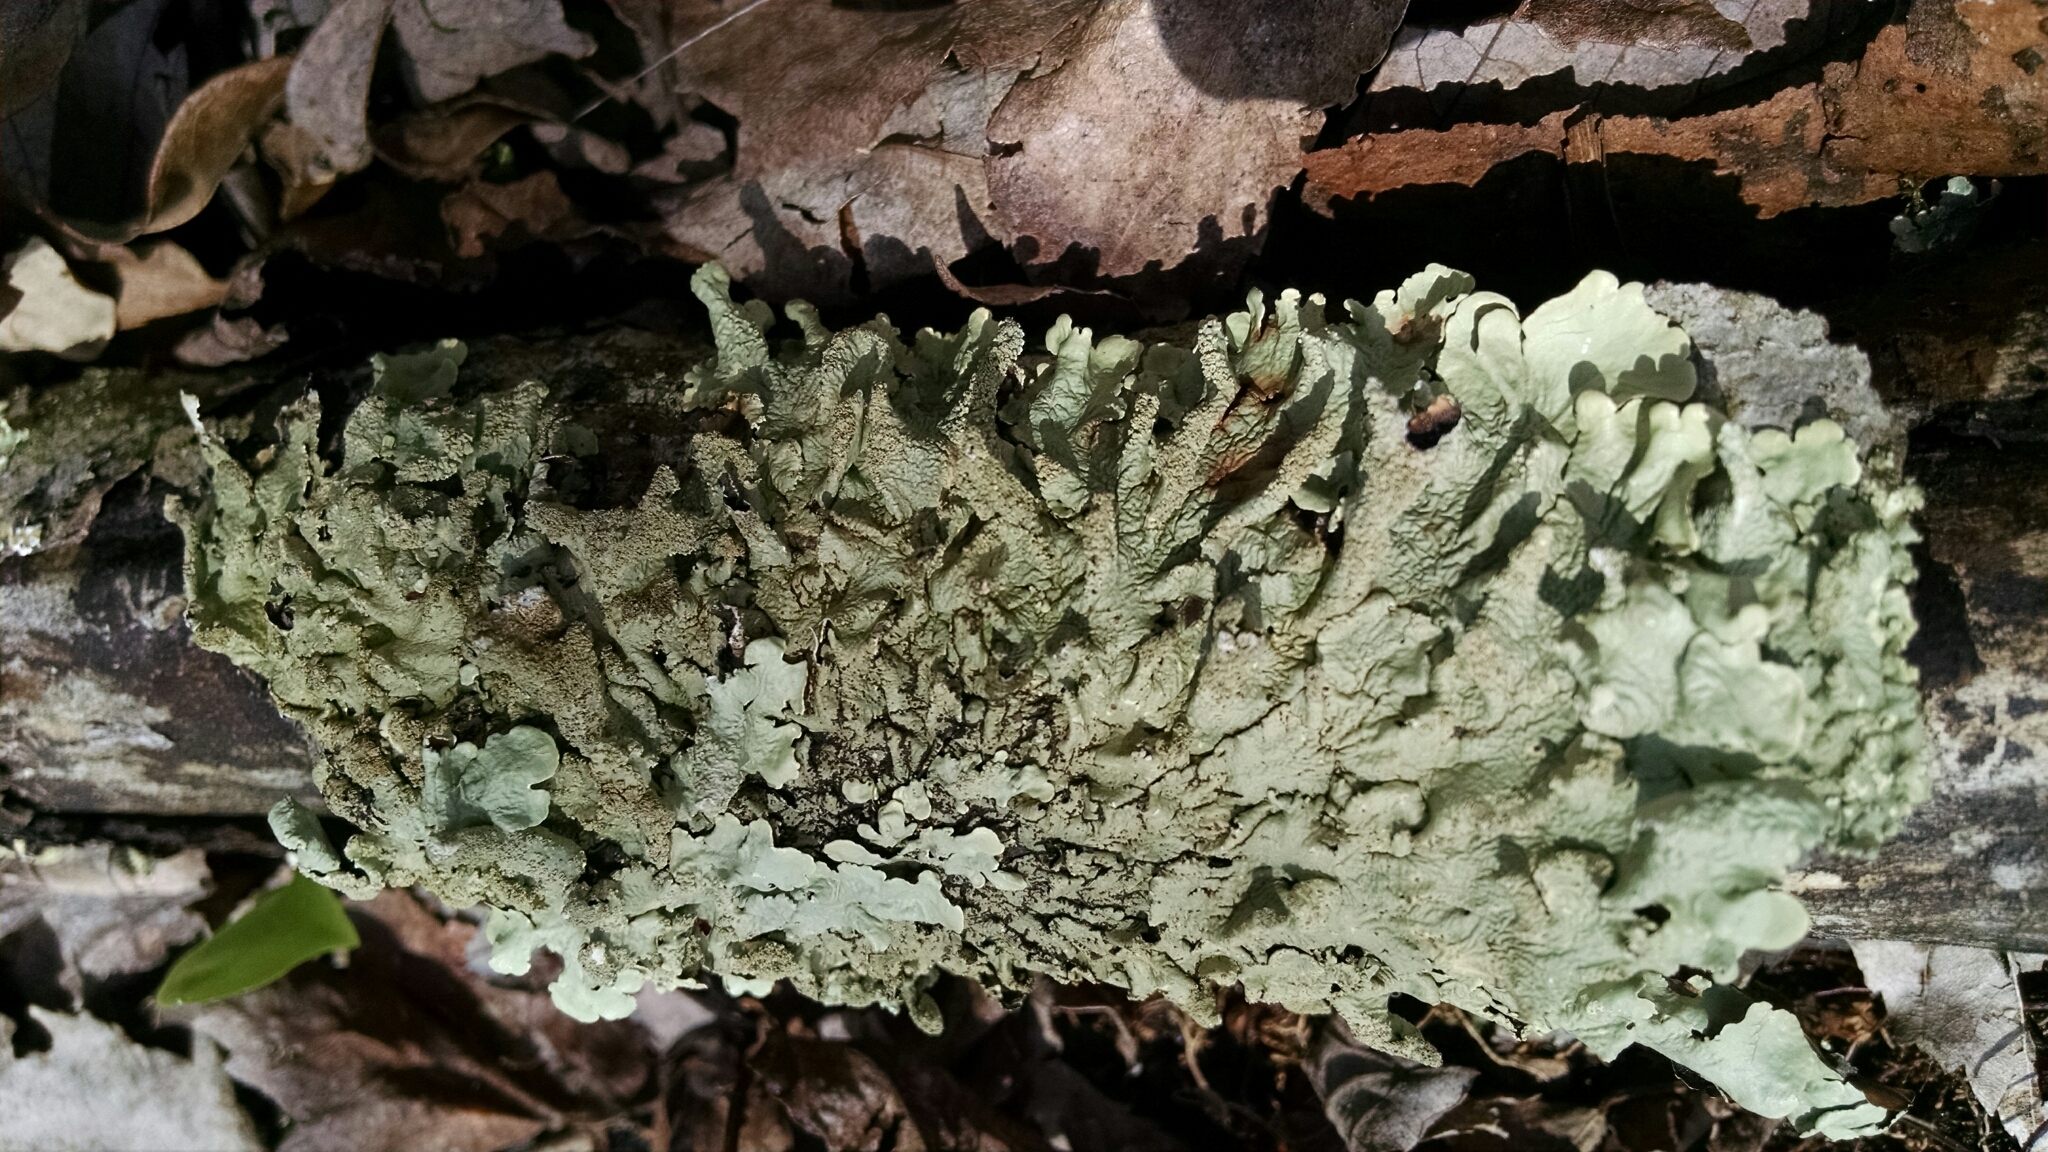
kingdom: Fungi
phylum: Ascomycota
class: Lecanoromycetes
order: Lecanorales
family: Parmeliaceae
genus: Flavoparmelia
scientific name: Flavoparmelia caperata
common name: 40-mile per hour lichen
